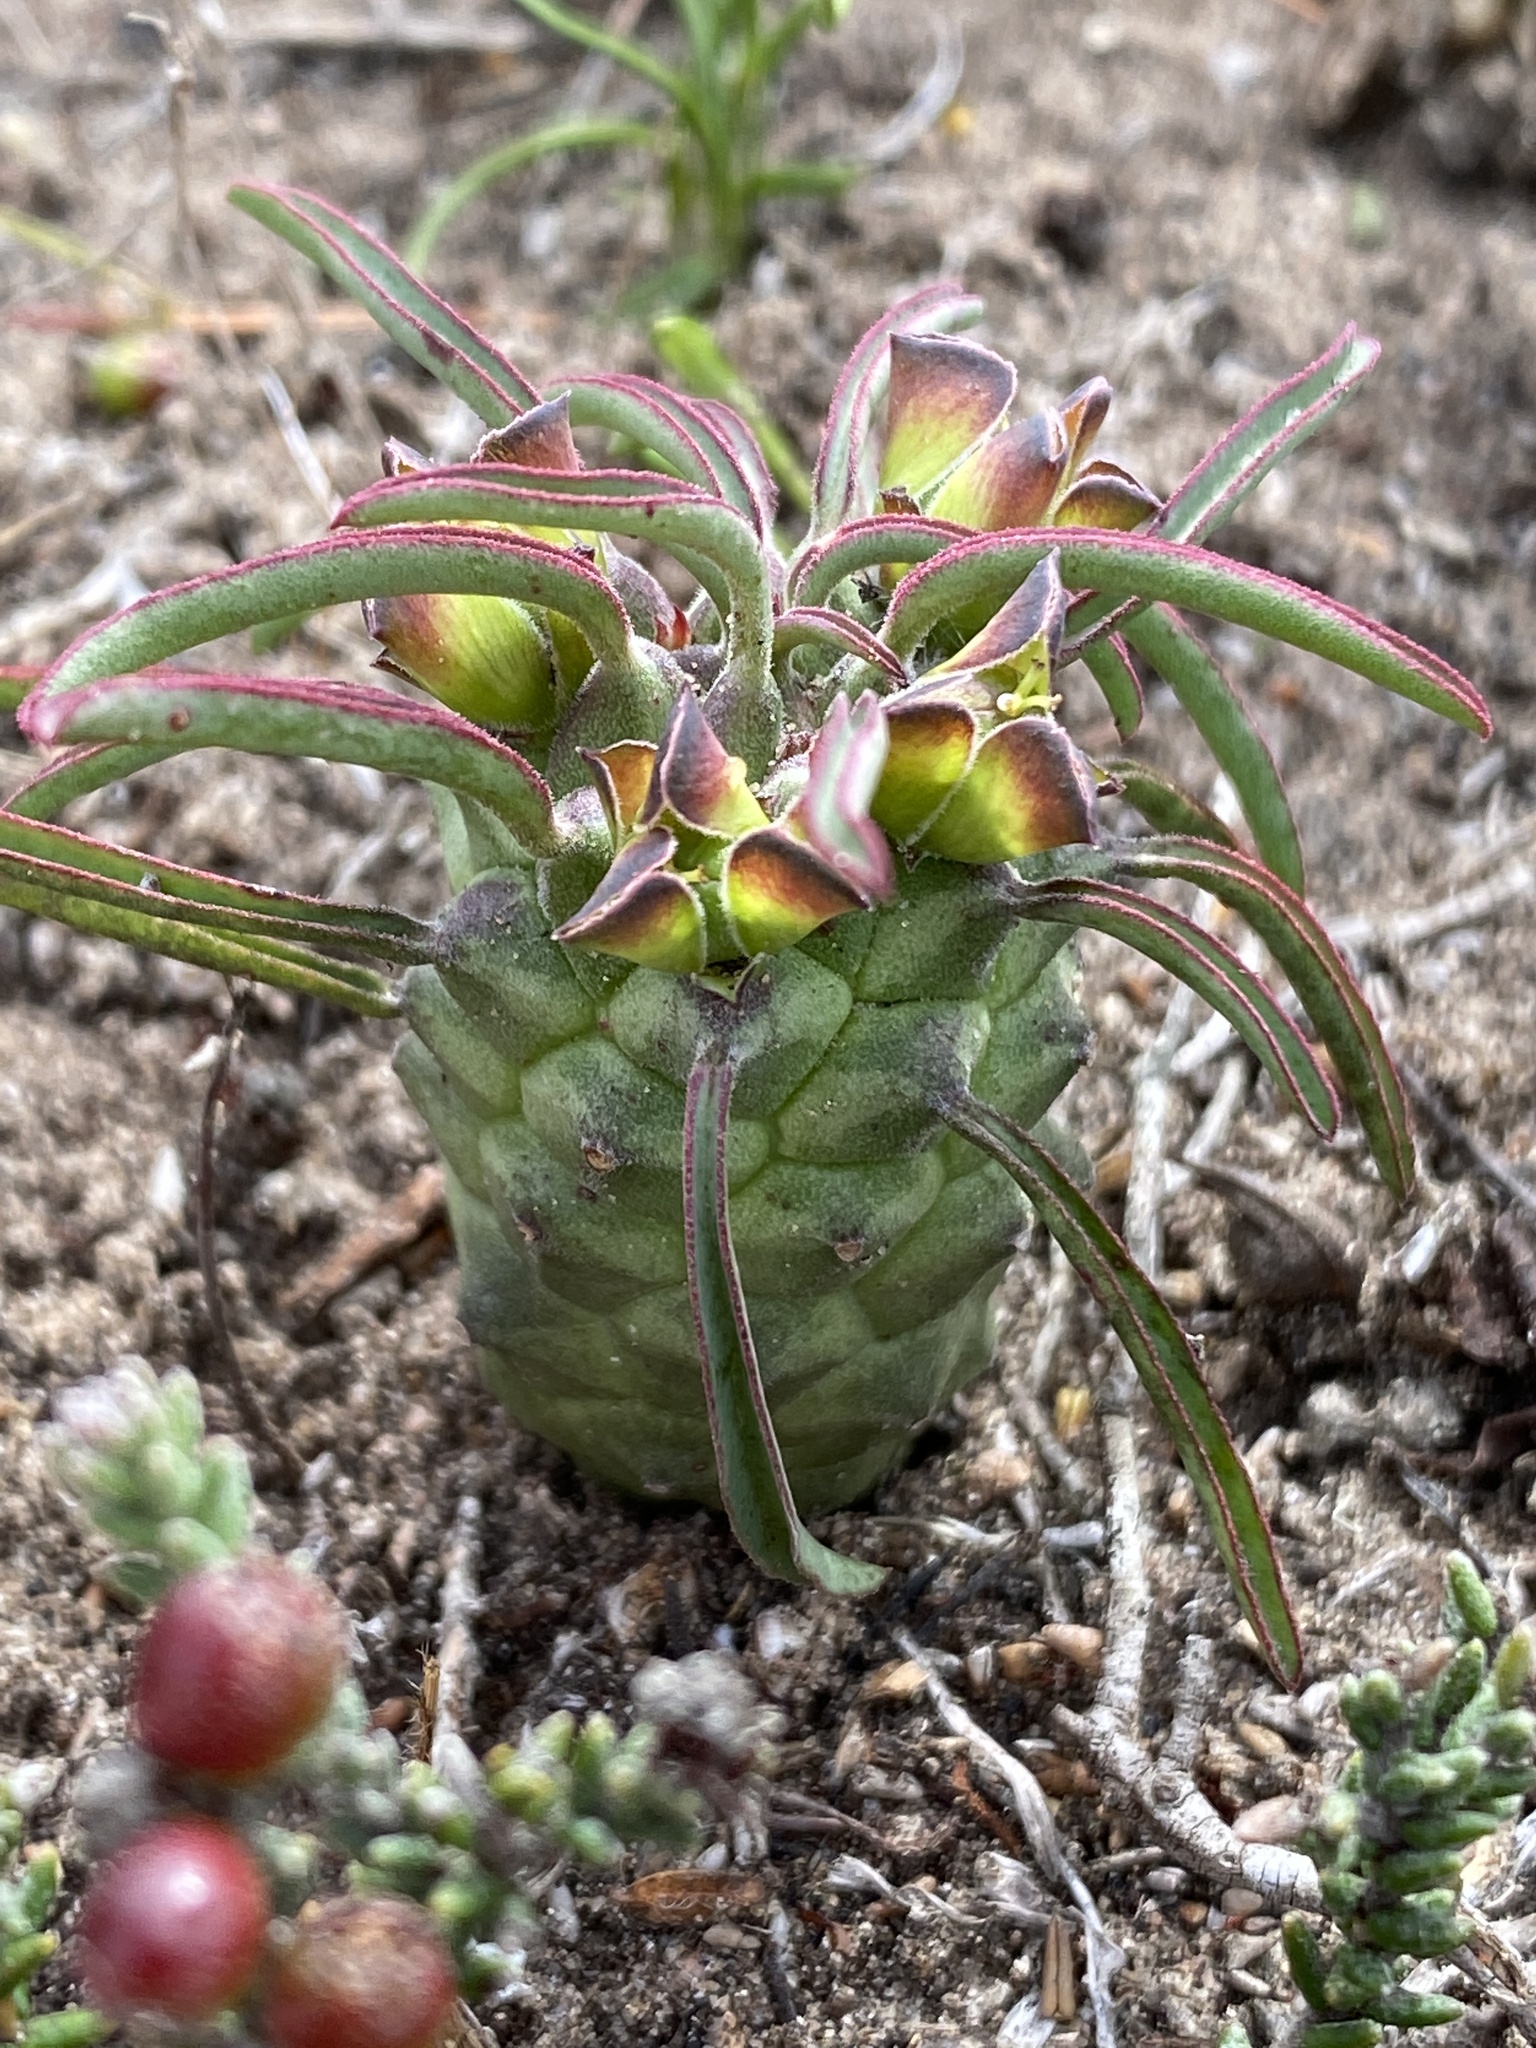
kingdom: Plantae
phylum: Tracheophyta
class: Magnoliopsida
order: Malpighiales
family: Euphorbiaceae
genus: Euphorbia
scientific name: Euphorbia clandestina
